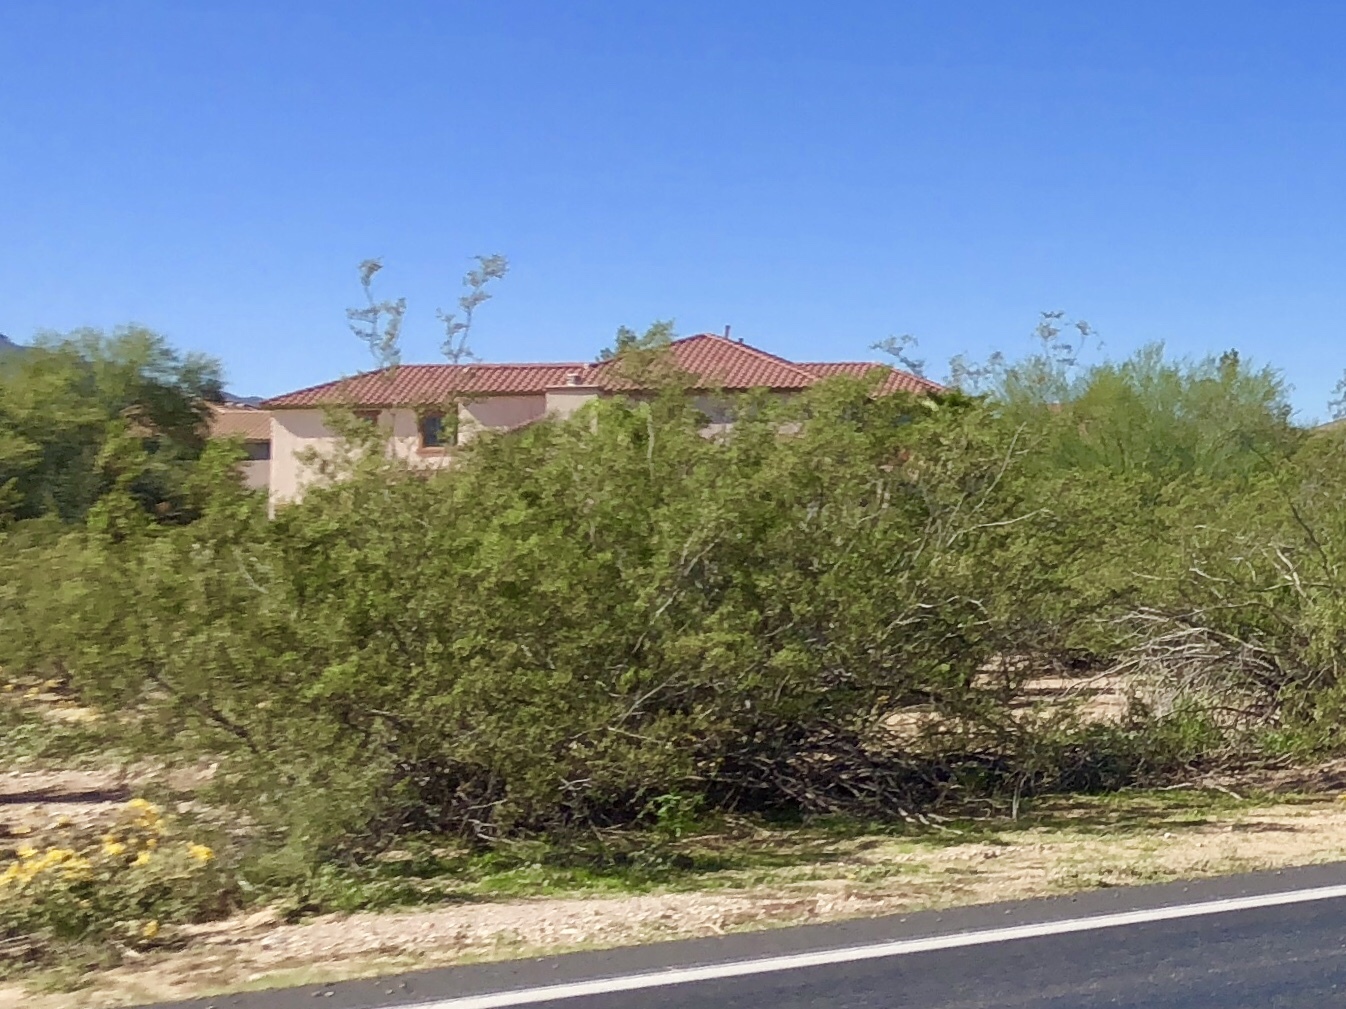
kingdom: Plantae
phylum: Tracheophyta
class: Magnoliopsida
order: Zygophyllales
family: Zygophyllaceae
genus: Larrea
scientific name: Larrea tridentata
